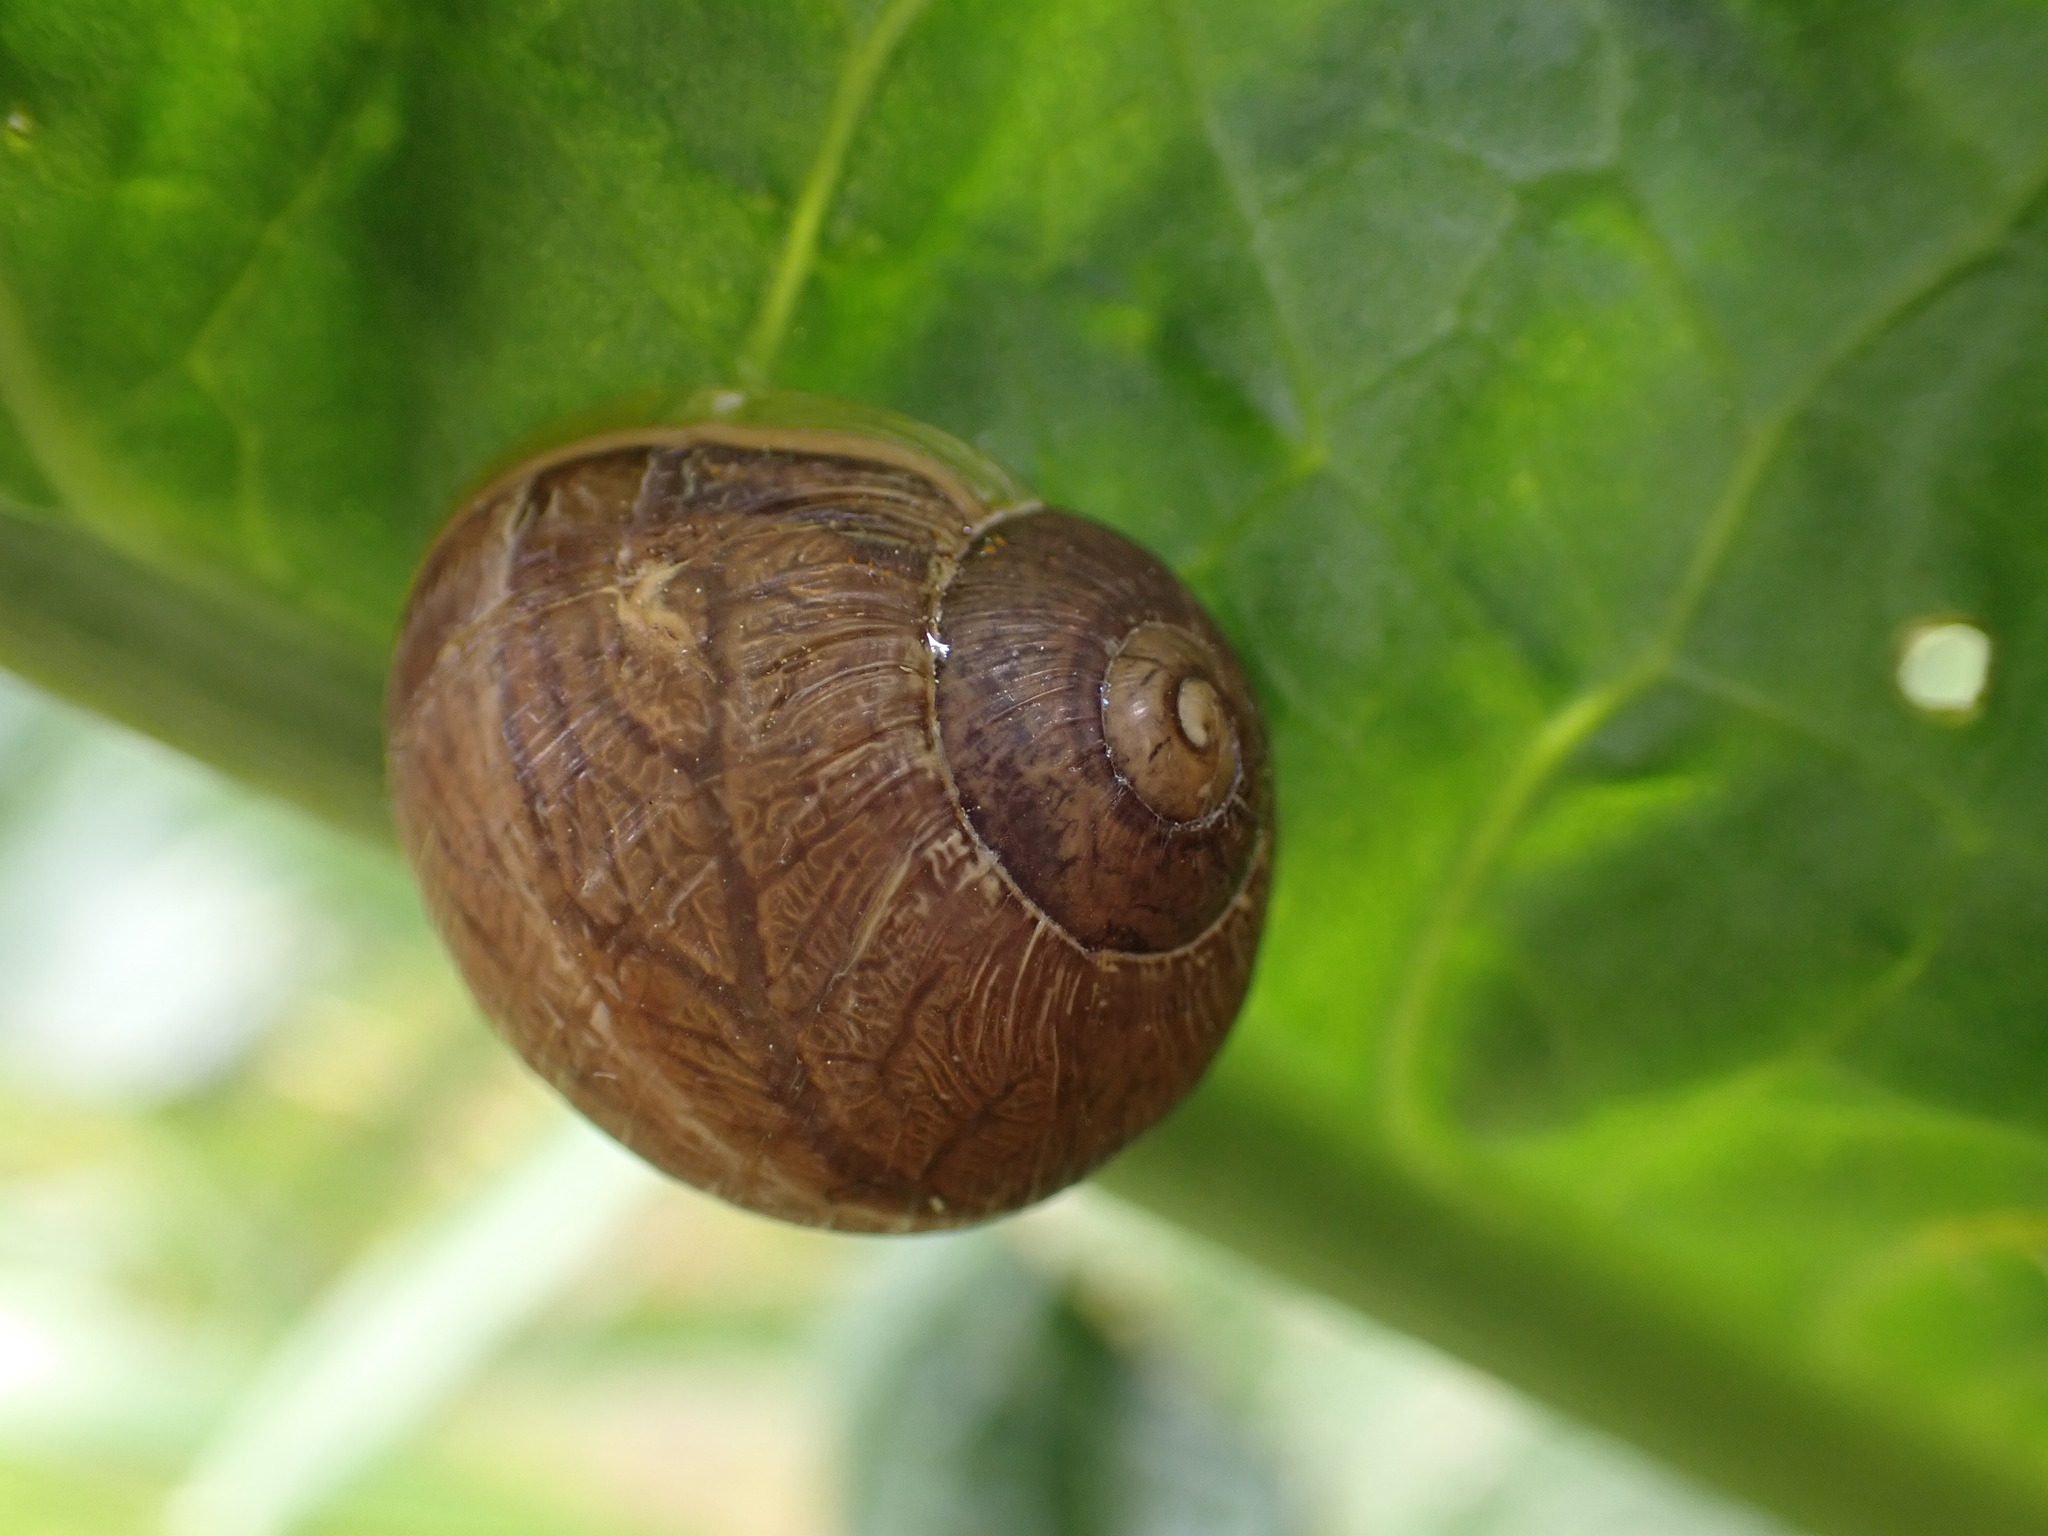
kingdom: Animalia
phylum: Mollusca
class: Gastropoda
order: Stylommatophora
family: Helicidae
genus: Cornu
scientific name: Cornu aspersum
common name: Brown garden snail
